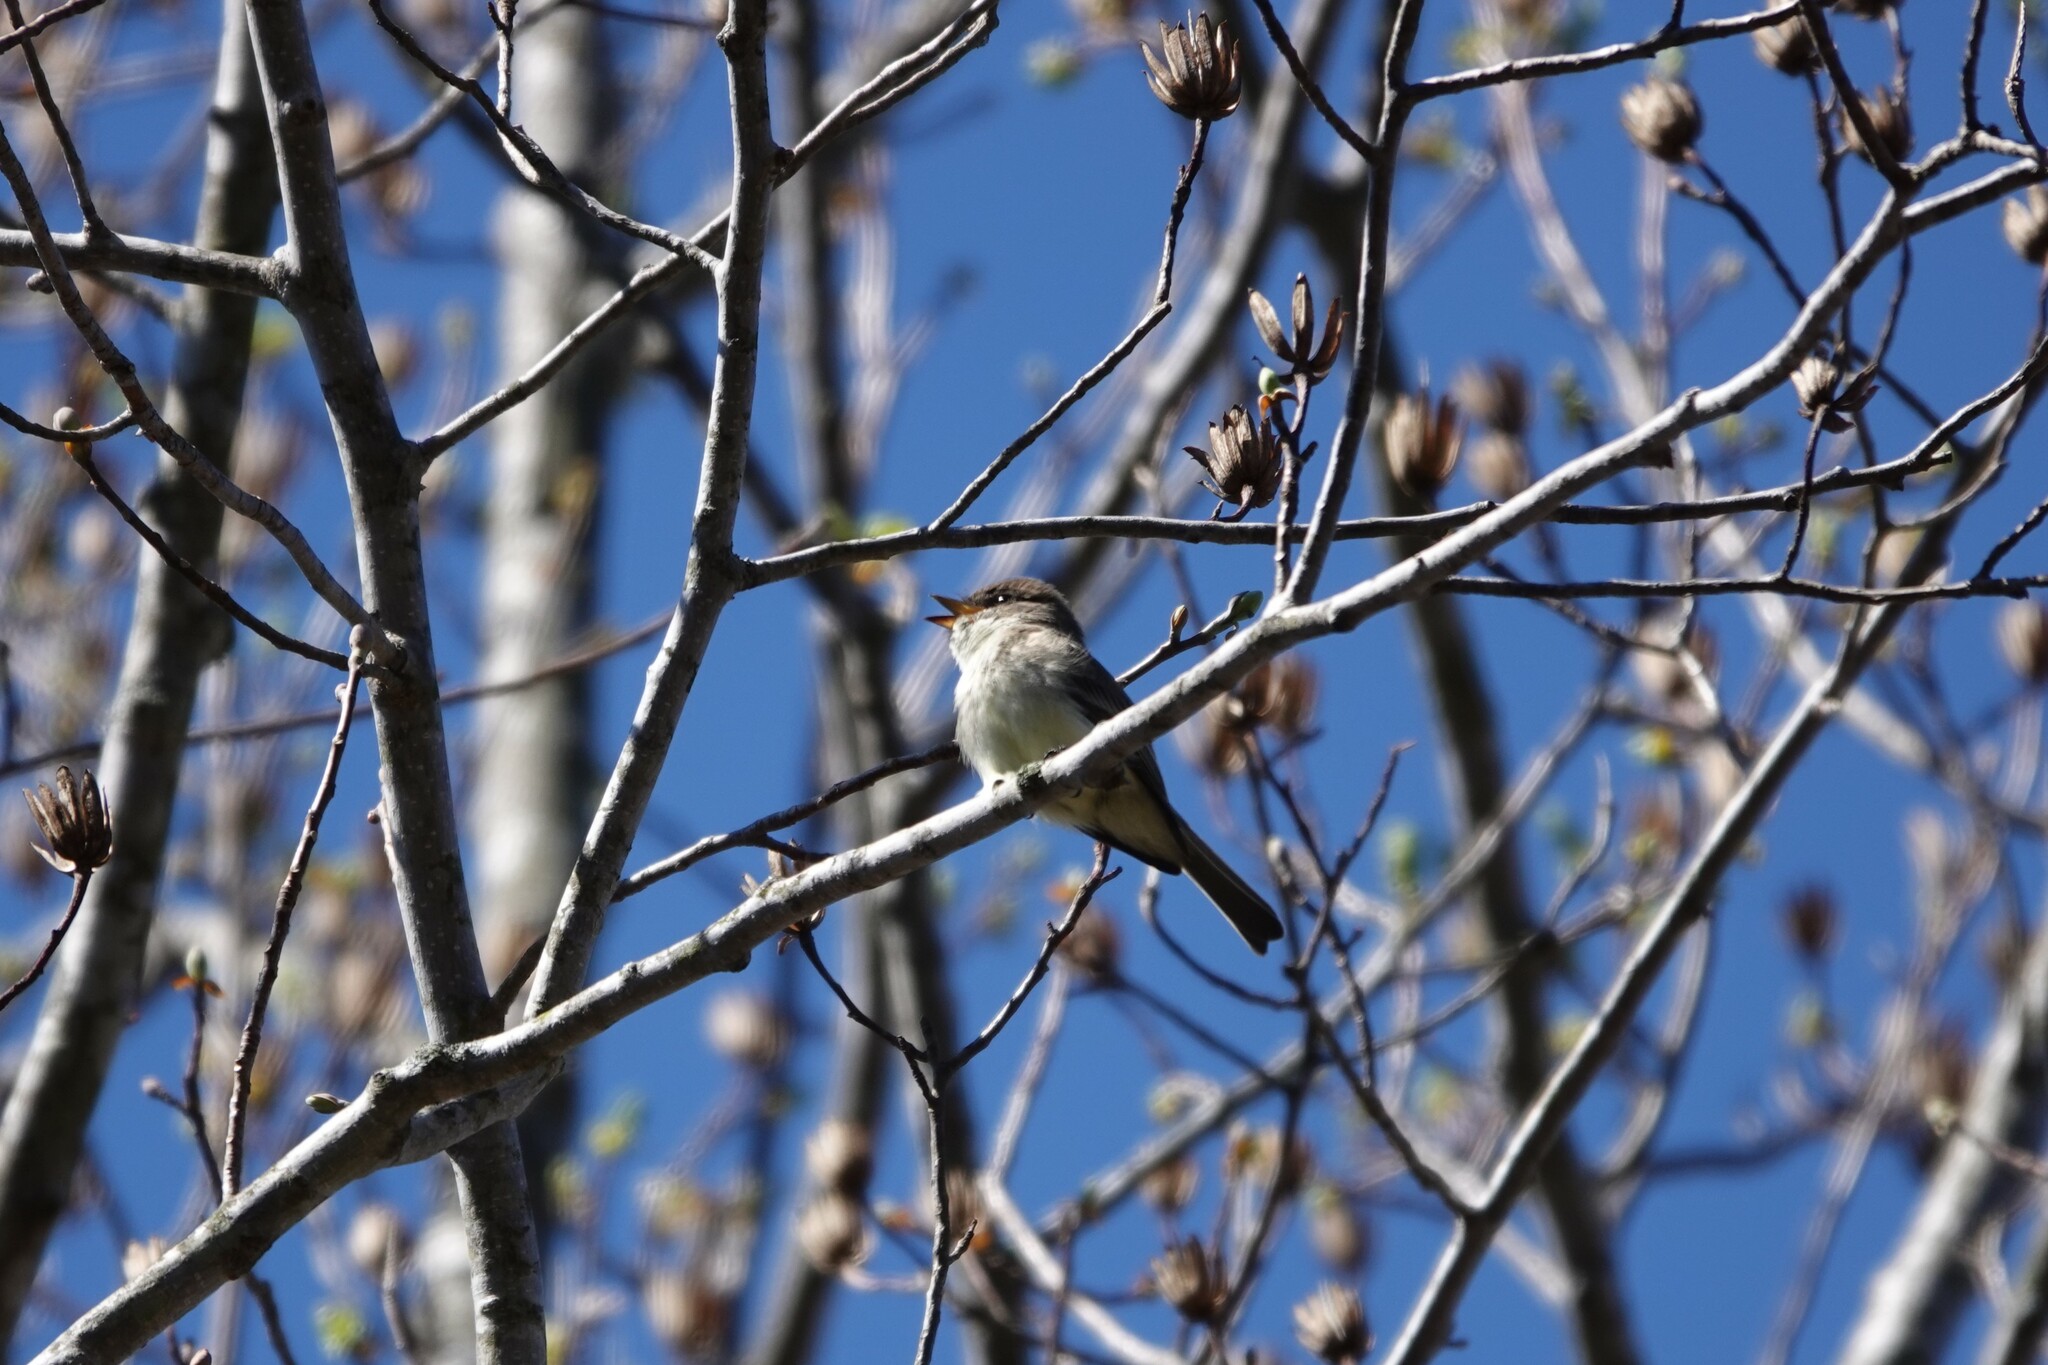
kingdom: Animalia
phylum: Chordata
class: Aves
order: Passeriformes
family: Tyrannidae
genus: Sayornis
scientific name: Sayornis phoebe
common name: Eastern phoebe
